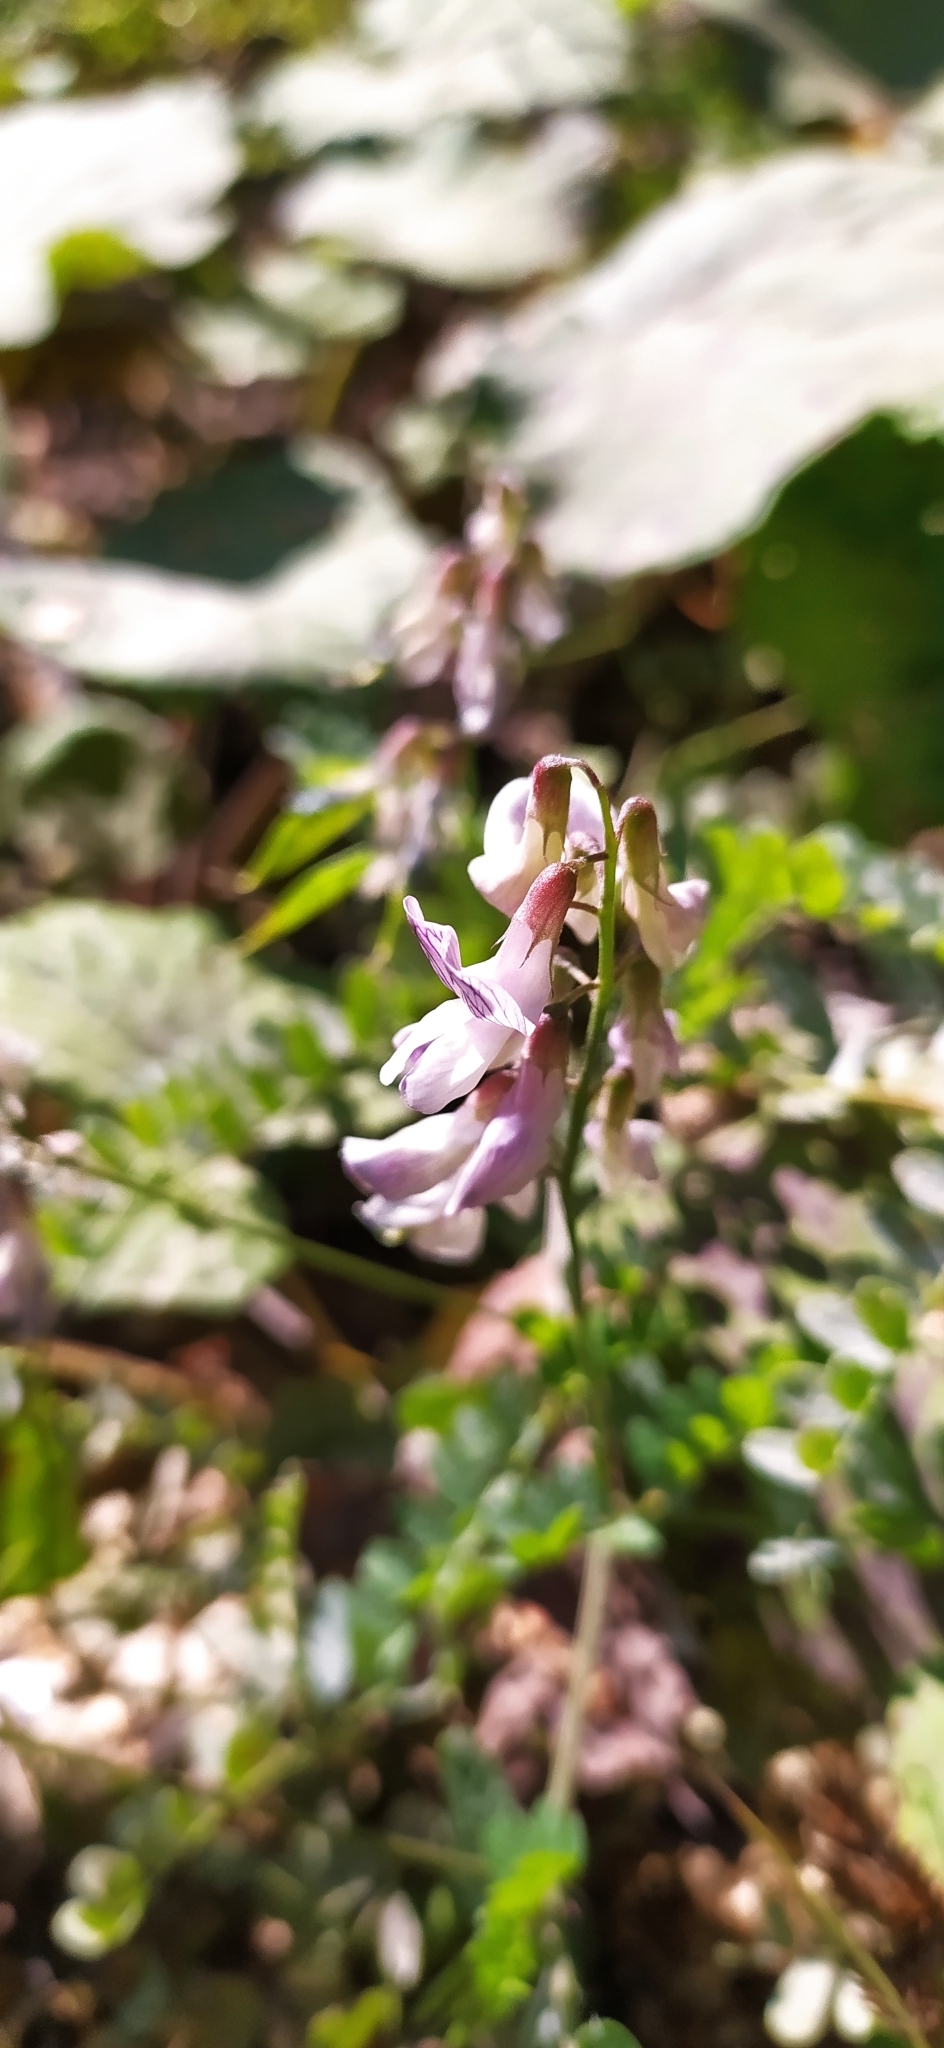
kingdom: Plantae
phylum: Tracheophyta
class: Magnoliopsida
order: Fabales
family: Fabaceae
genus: Vicia
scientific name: Vicia sylvatica
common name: Wood vetch
